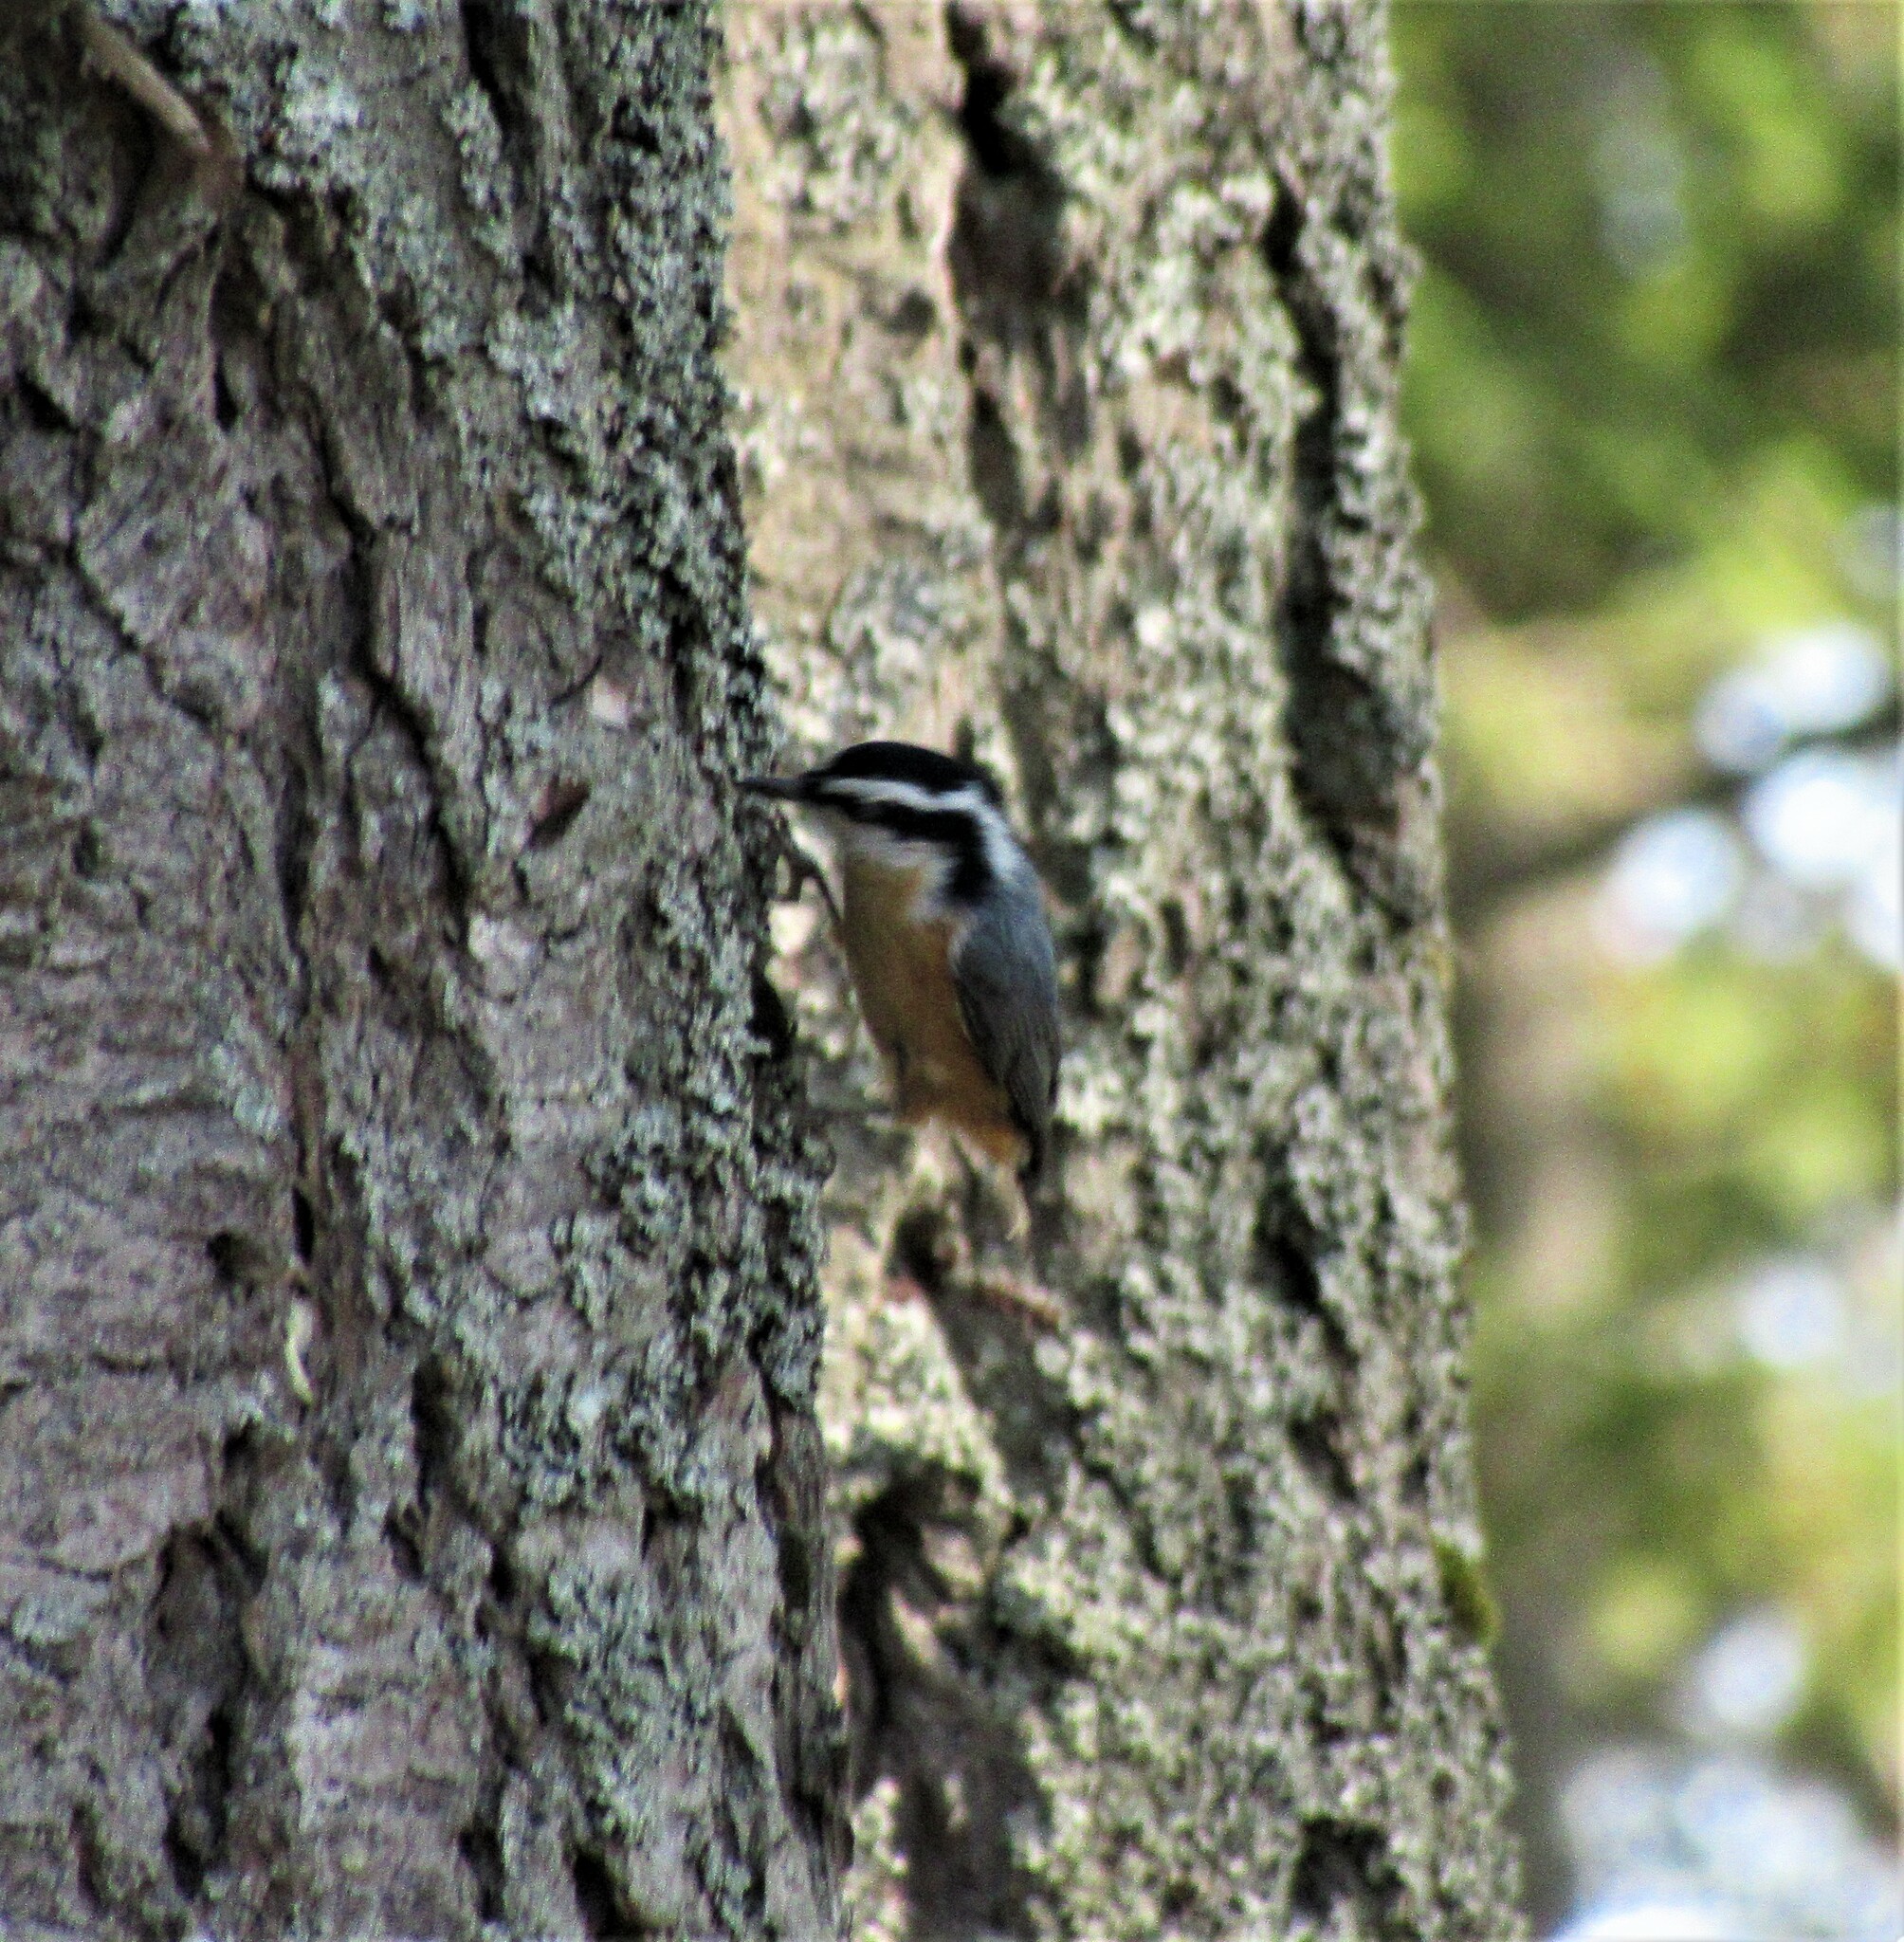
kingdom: Animalia
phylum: Chordata
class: Aves
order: Passeriformes
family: Sittidae
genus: Sitta
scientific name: Sitta canadensis
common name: Red-breasted nuthatch
